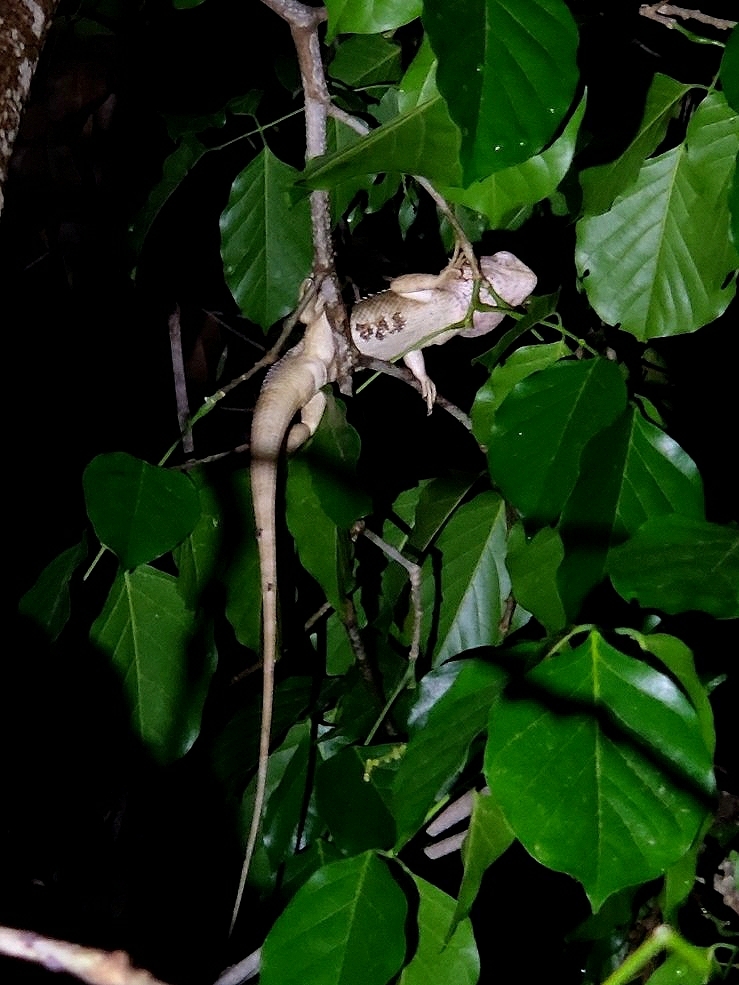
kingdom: Animalia
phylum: Chordata
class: Squamata
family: Agamidae
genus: Calotes
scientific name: Calotes versicolor
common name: Oriental garden lizard
